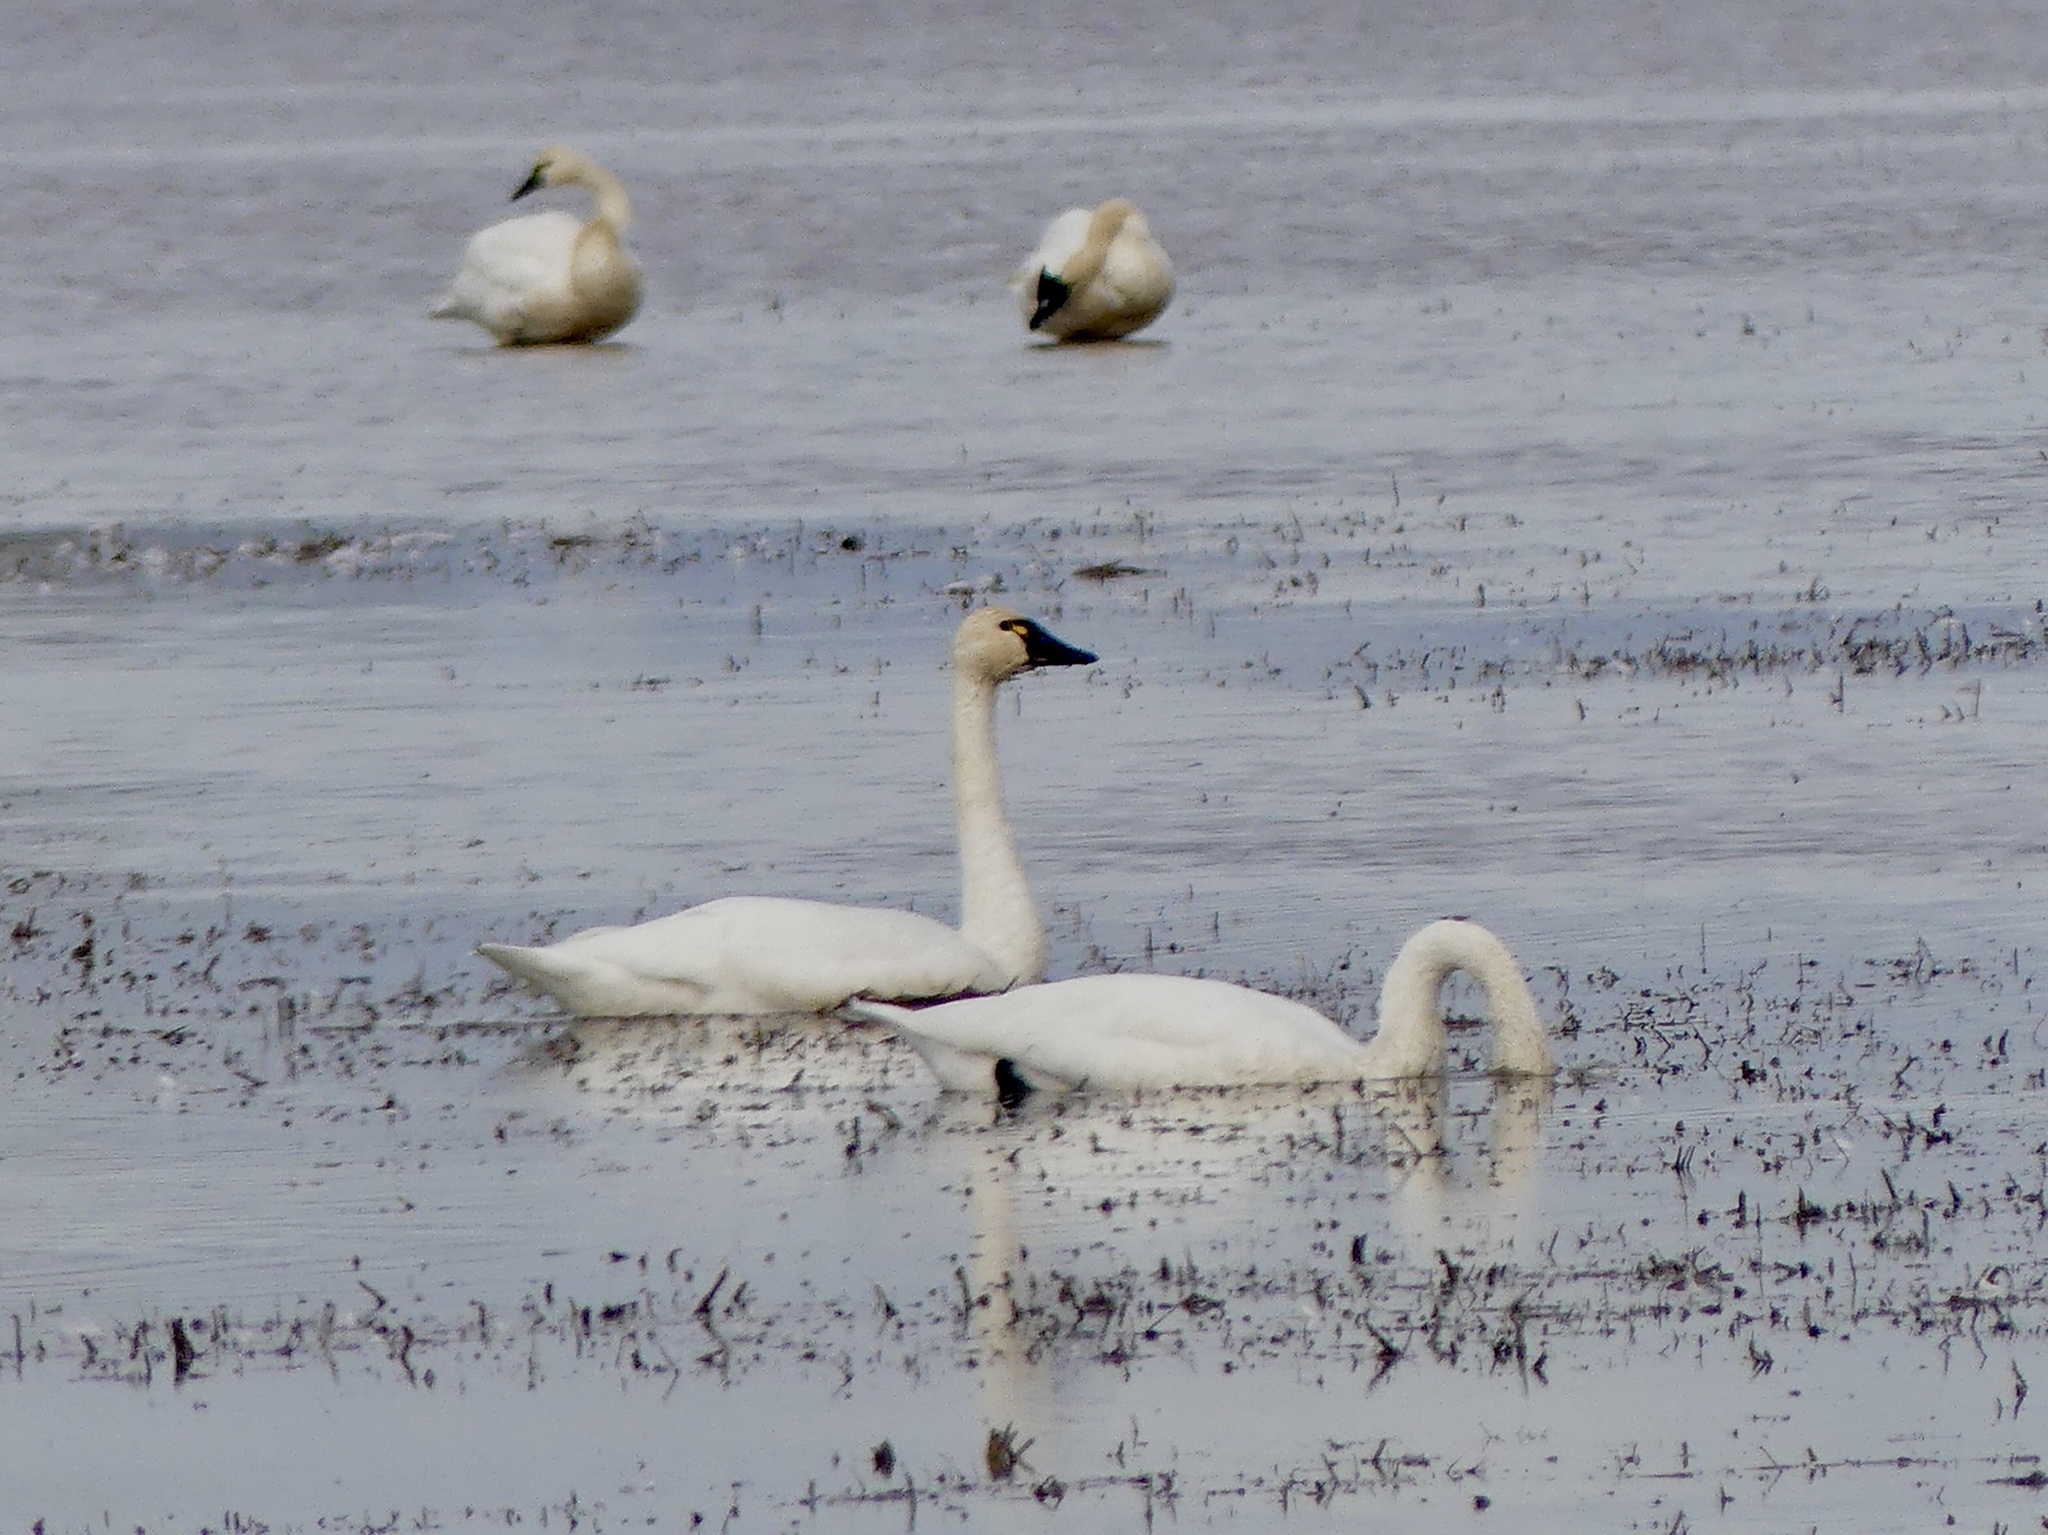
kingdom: Animalia
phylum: Chordata
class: Aves
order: Anseriformes
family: Anatidae
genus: Cygnus
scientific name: Cygnus columbianus
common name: Tundra swan
